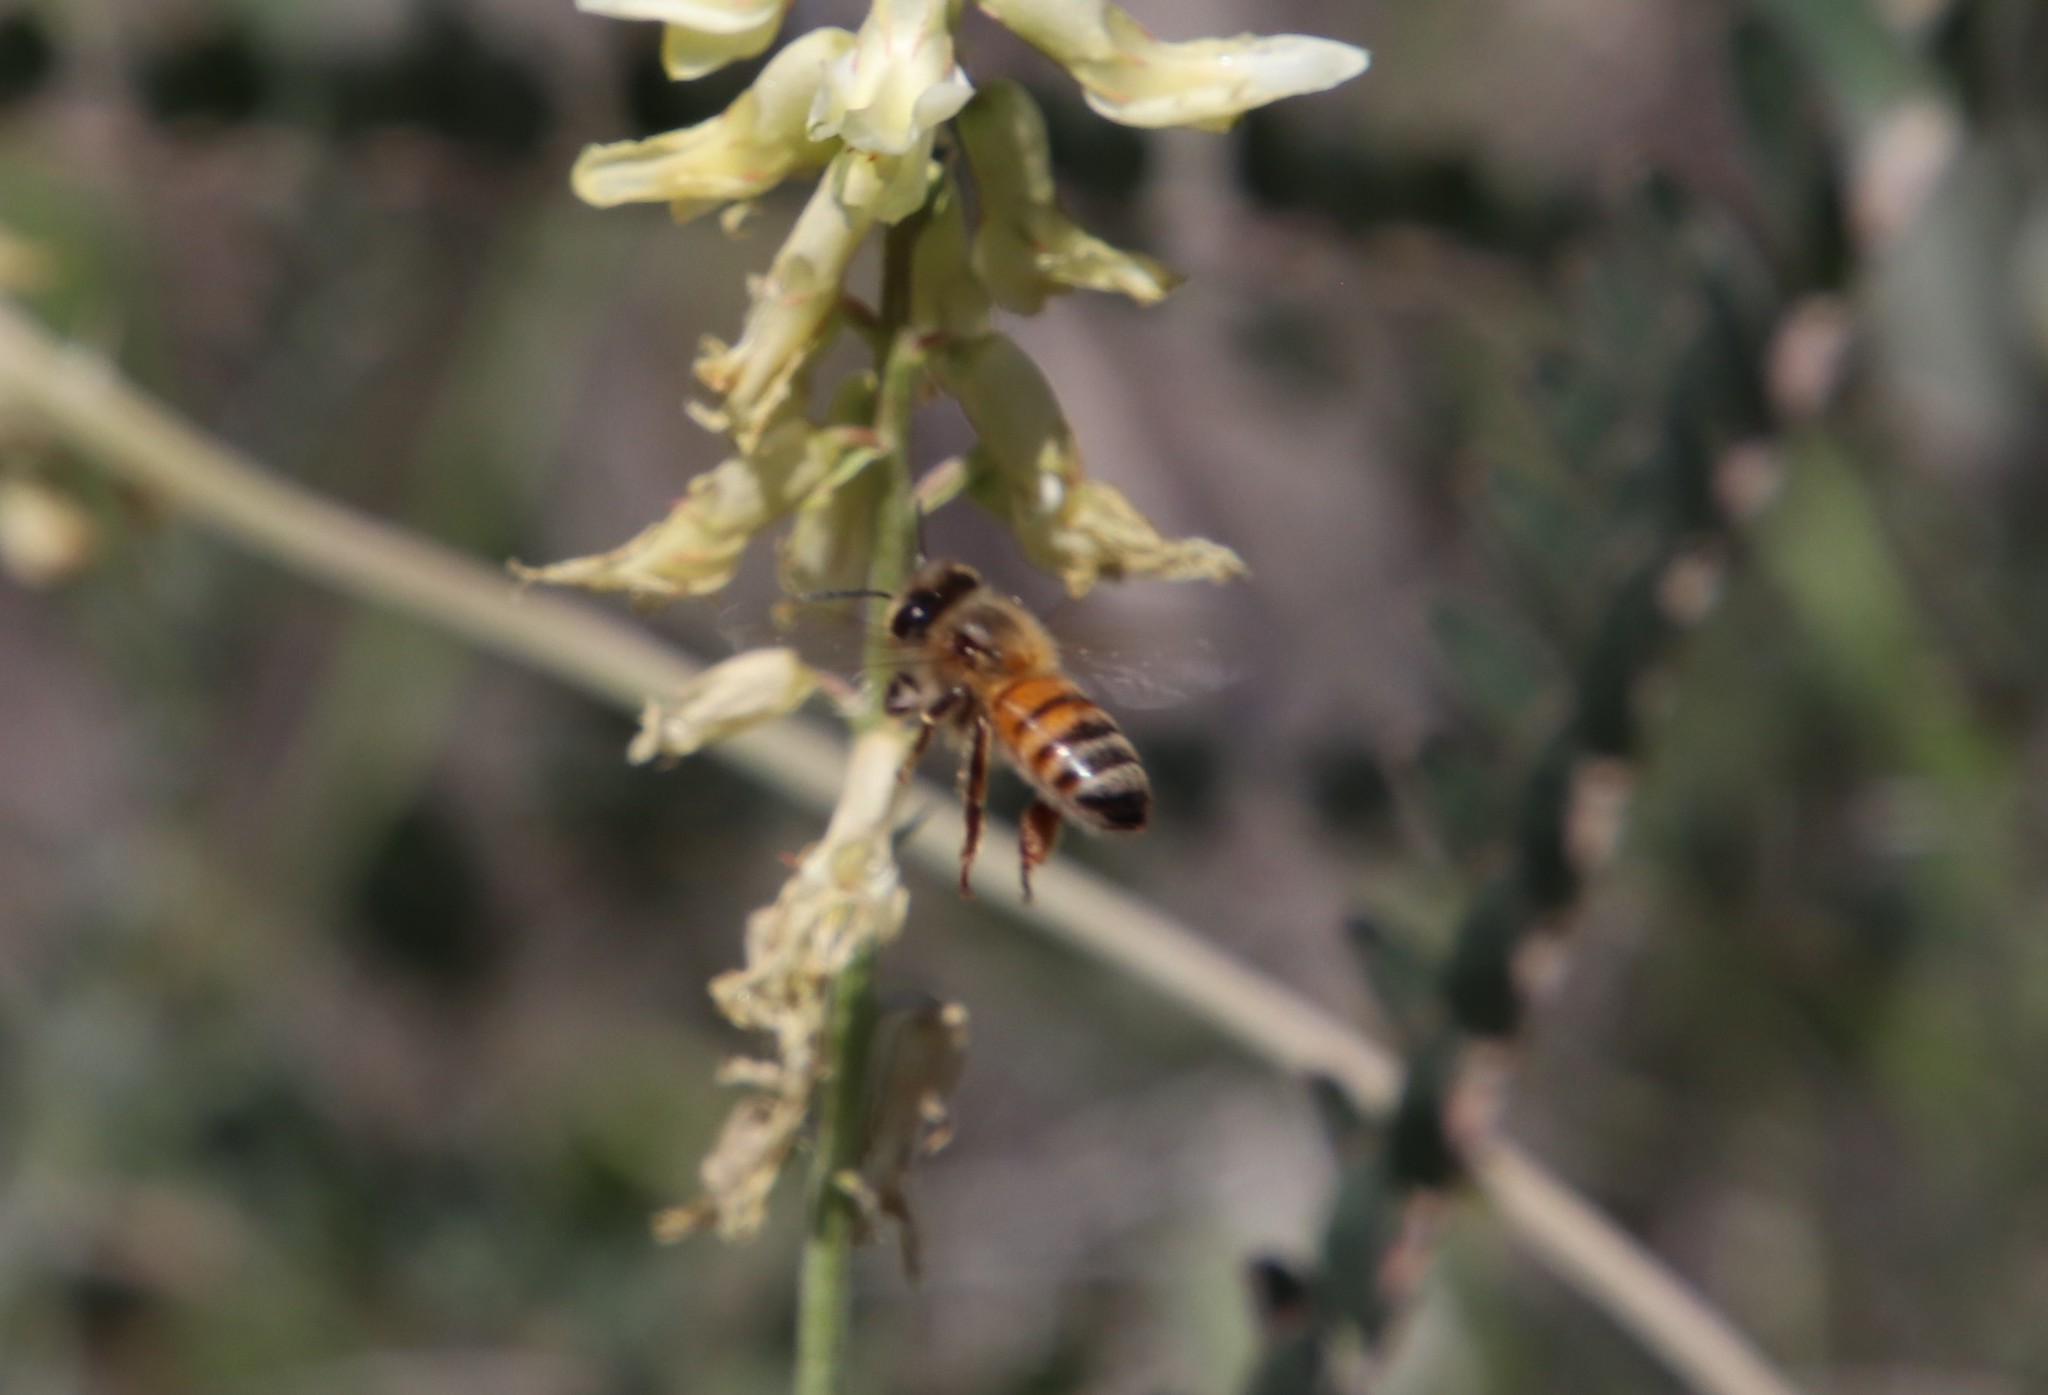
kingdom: Animalia
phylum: Arthropoda
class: Insecta
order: Hymenoptera
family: Apidae
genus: Apis
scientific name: Apis mellifera
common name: Honey bee
